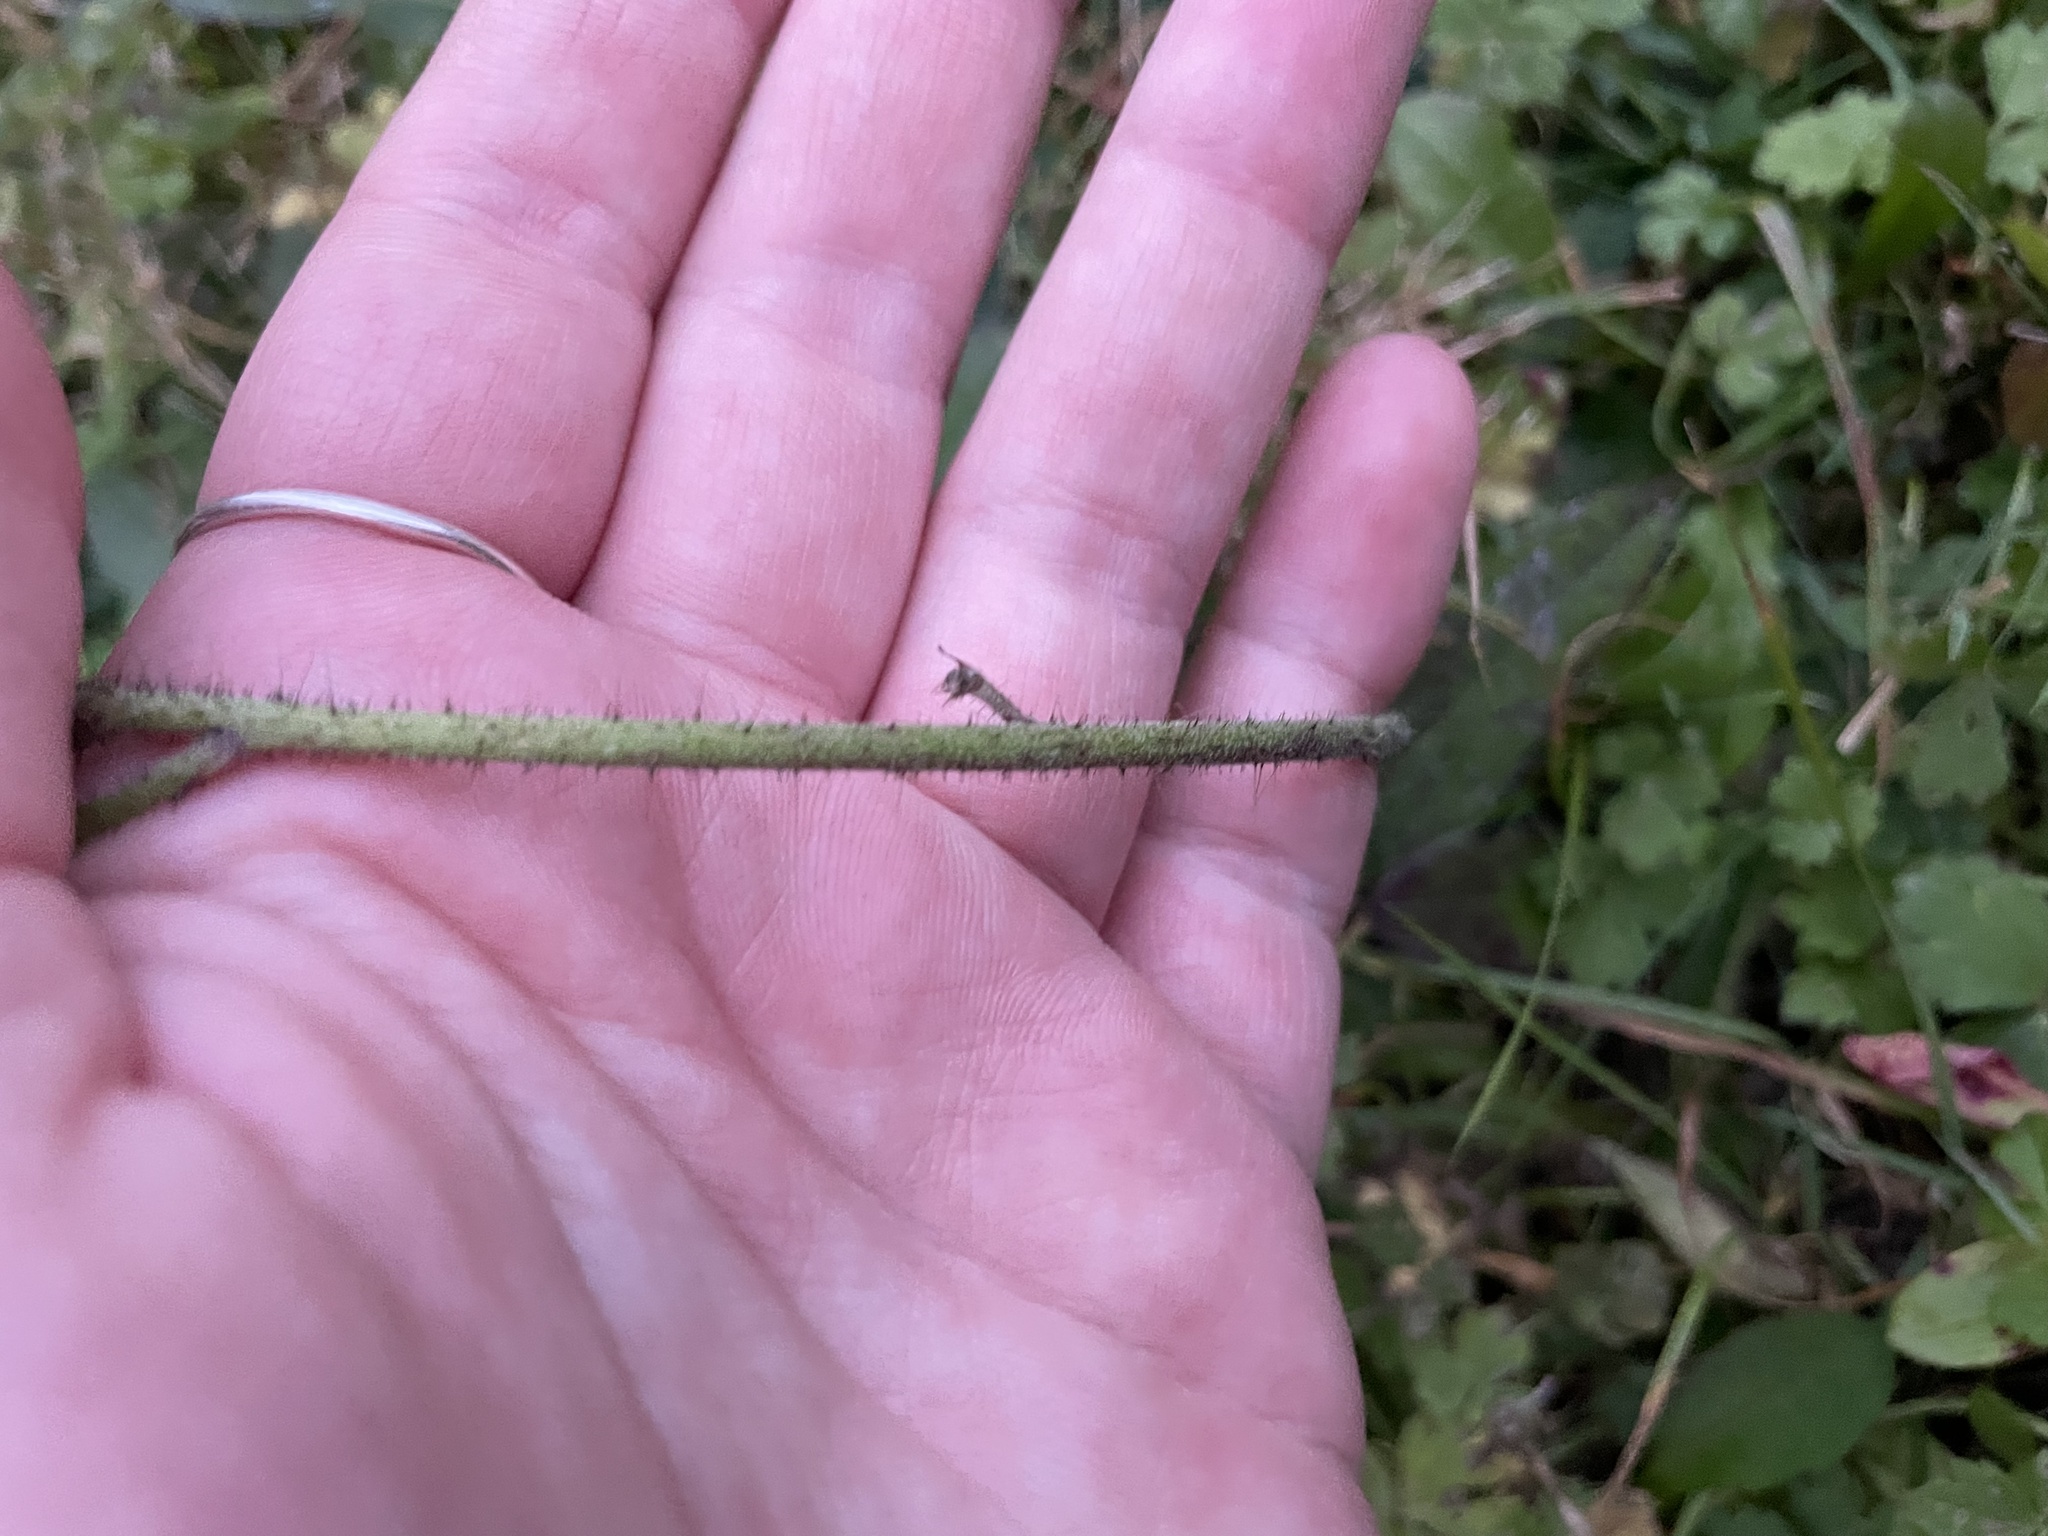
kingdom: Plantae
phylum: Tracheophyta
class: Magnoliopsida
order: Asterales
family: Asteraceae
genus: Pilosella
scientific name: Pilosella aurantiaca
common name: Fox-and-cubs
